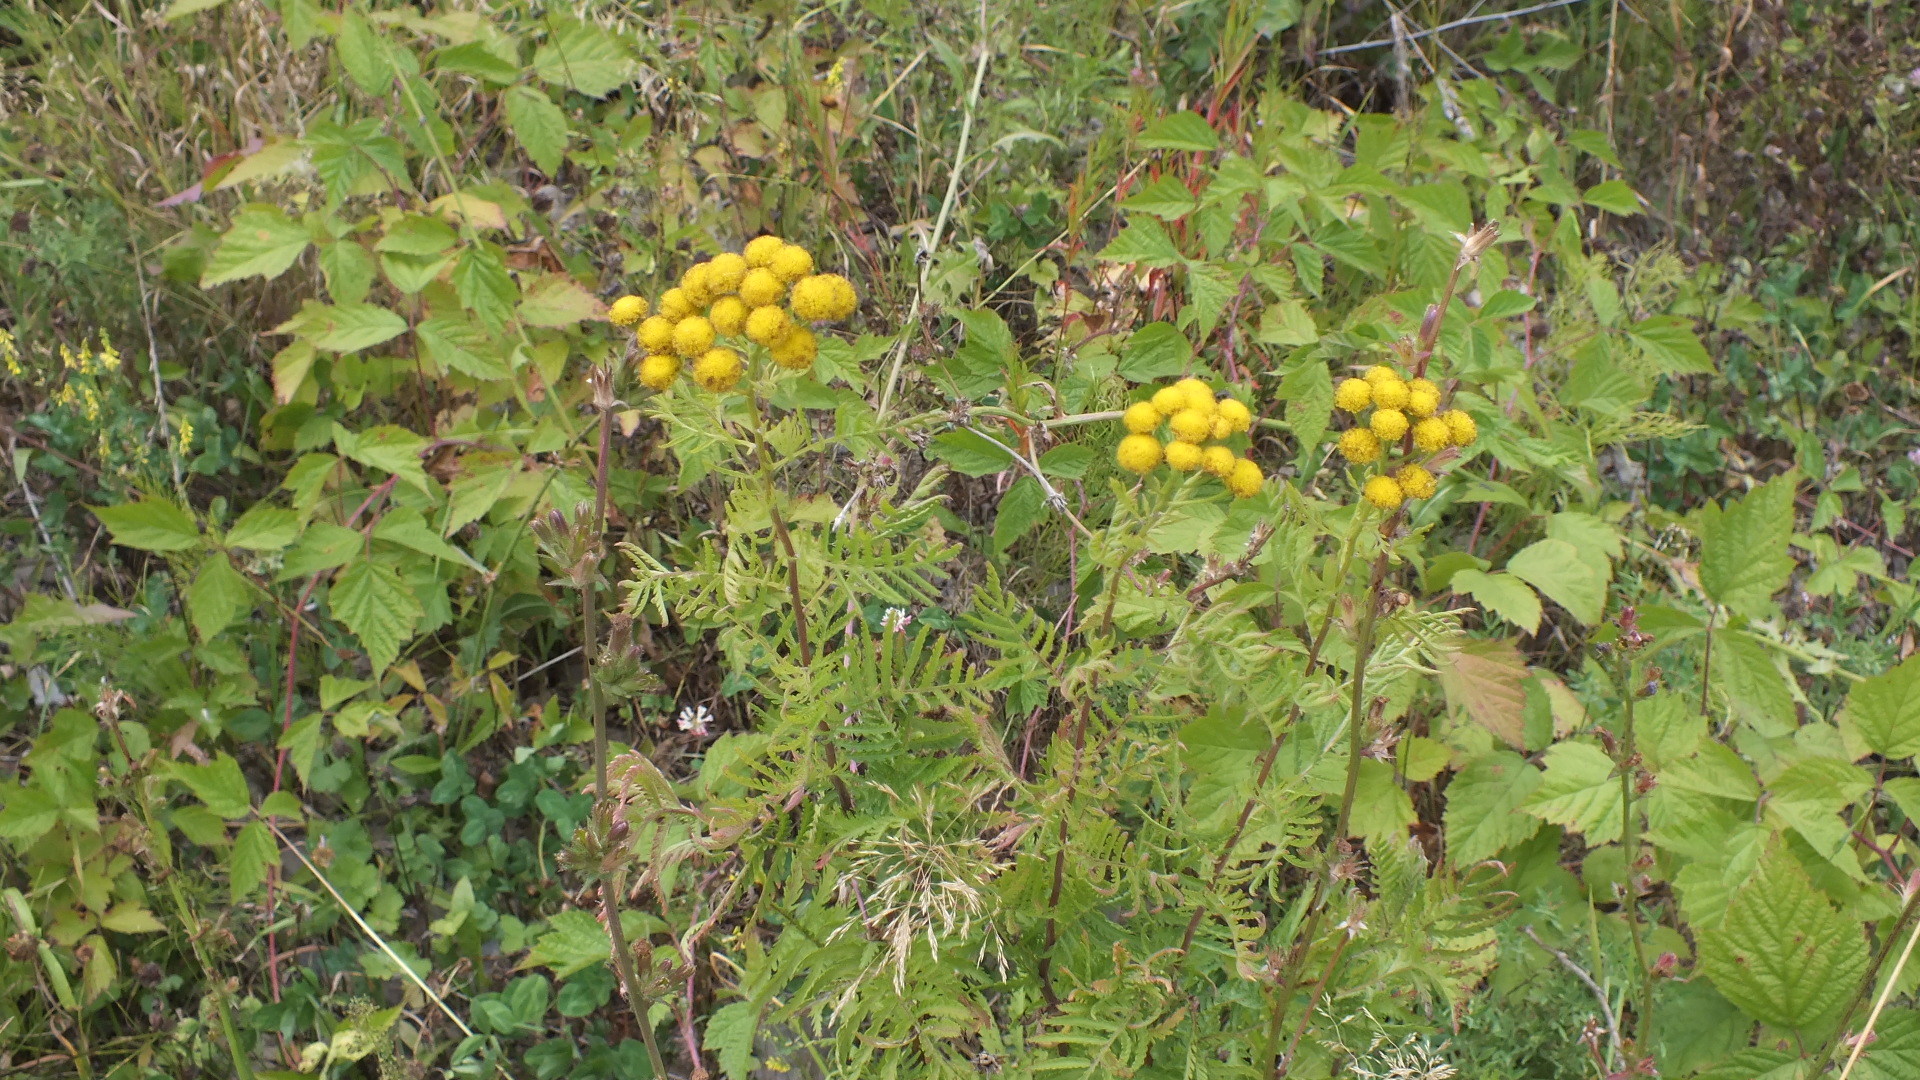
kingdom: Plantae
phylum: Tracheophyta
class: Magnoliopsida
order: Asterales
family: Asteraceae
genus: Tanacetum
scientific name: Tanacetum vulgare
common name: Common tansy
